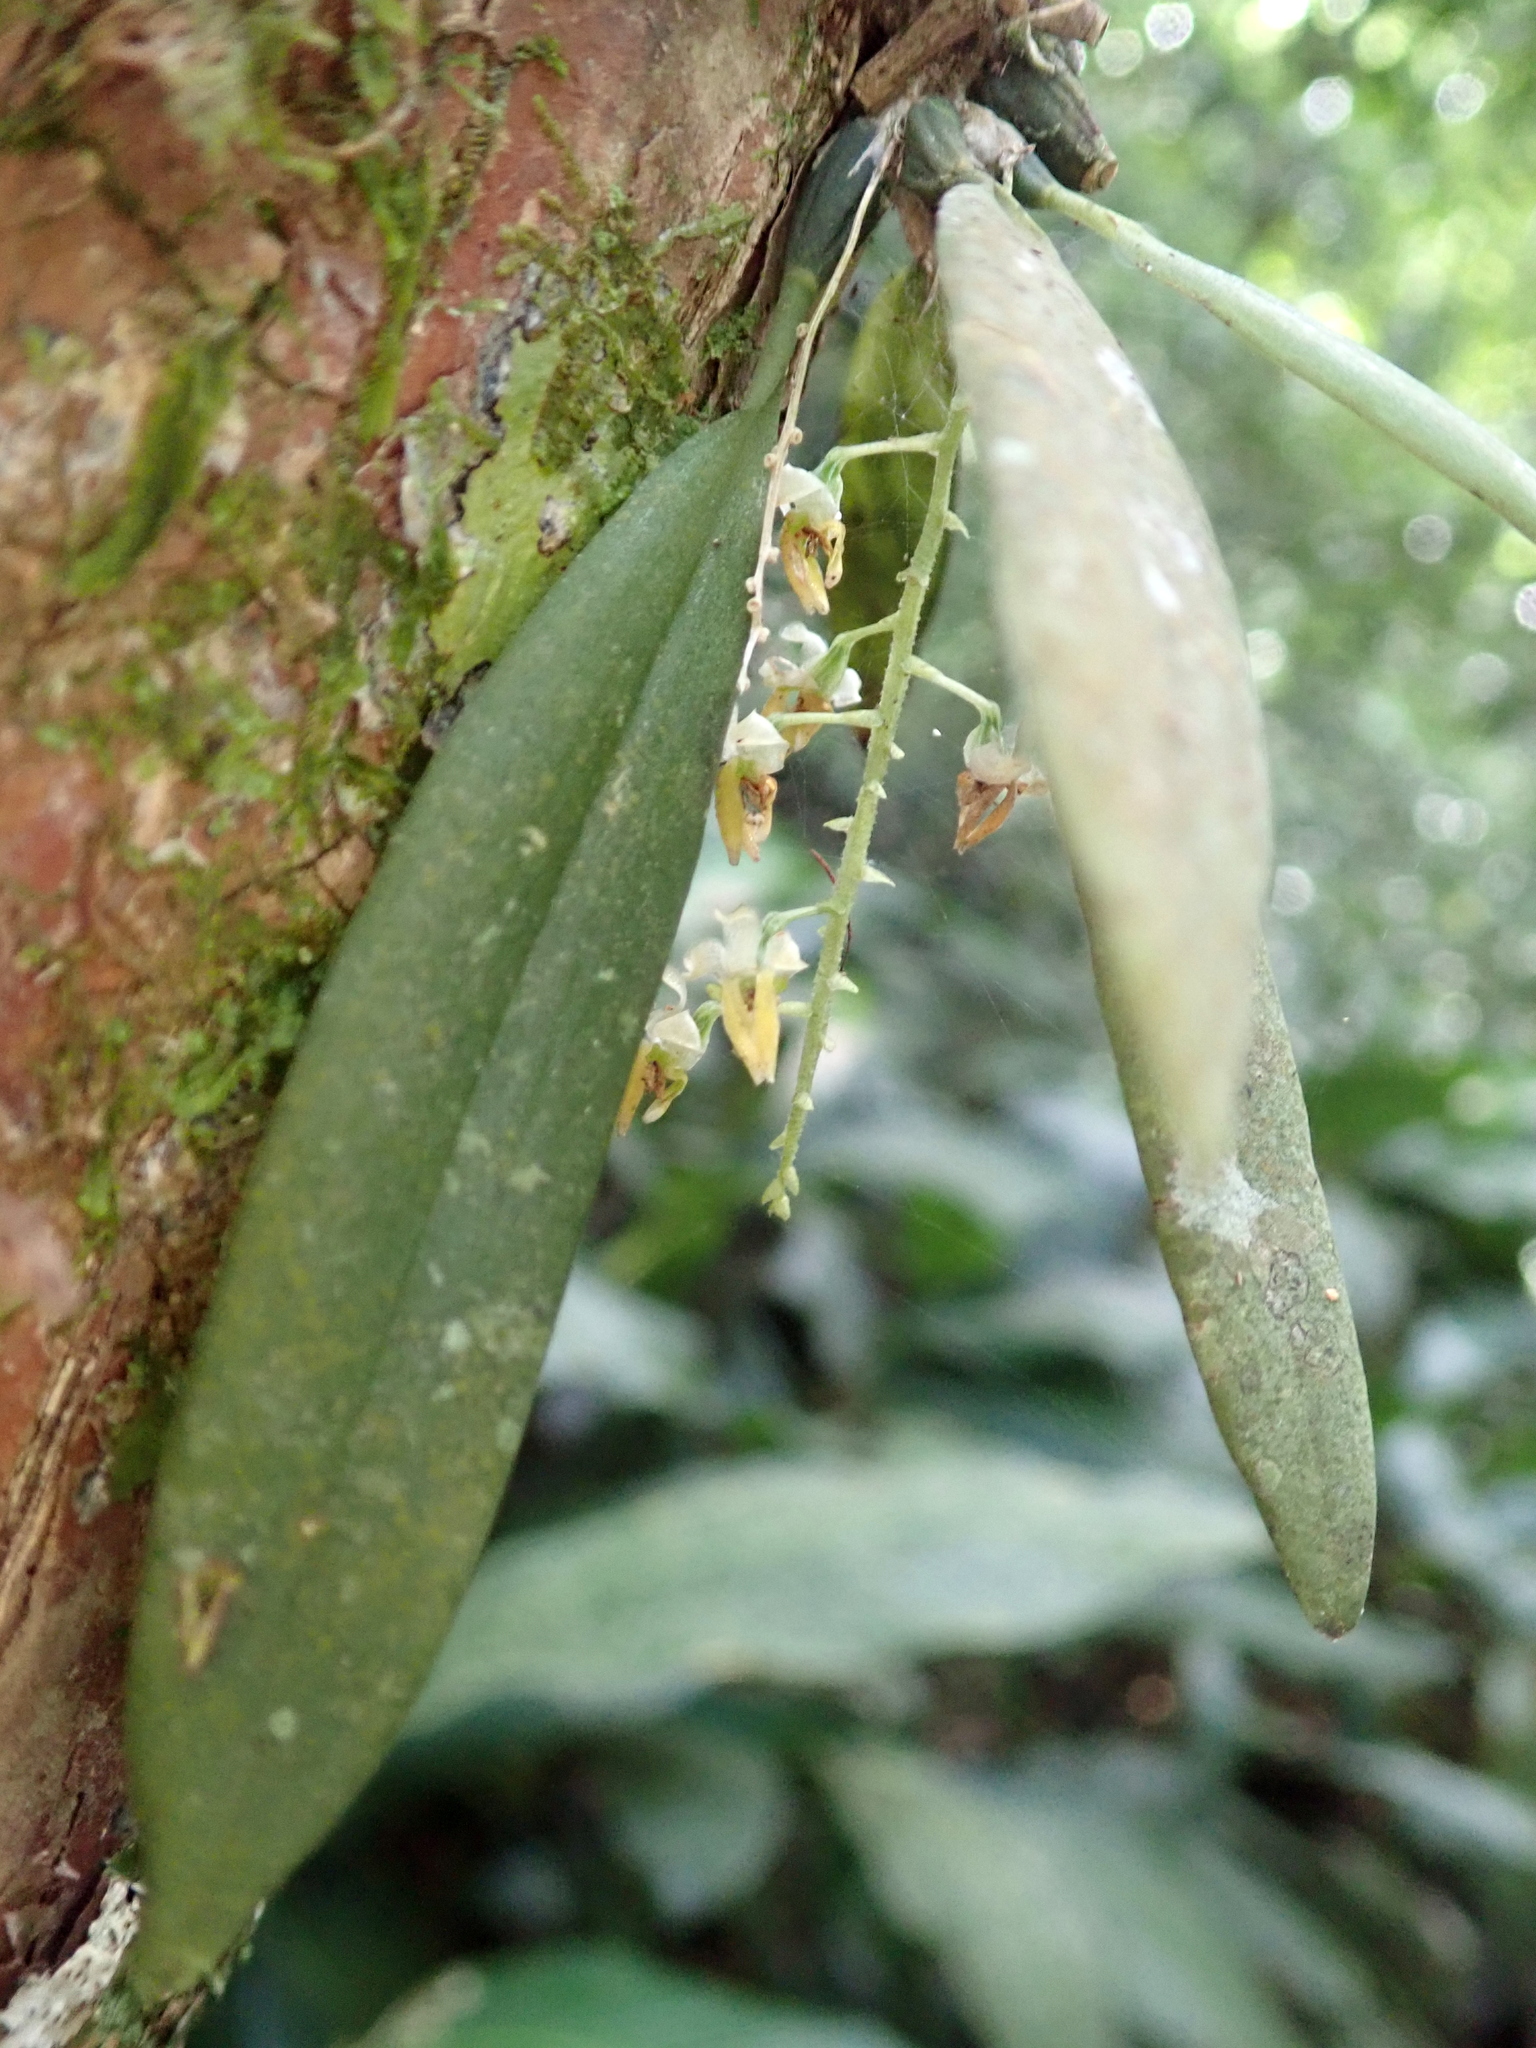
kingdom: Plantae
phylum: Tracheophyta
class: Liliopsida
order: Asparagales
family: Orchidaceae
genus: Zygostates
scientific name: Zygostates pellucida
